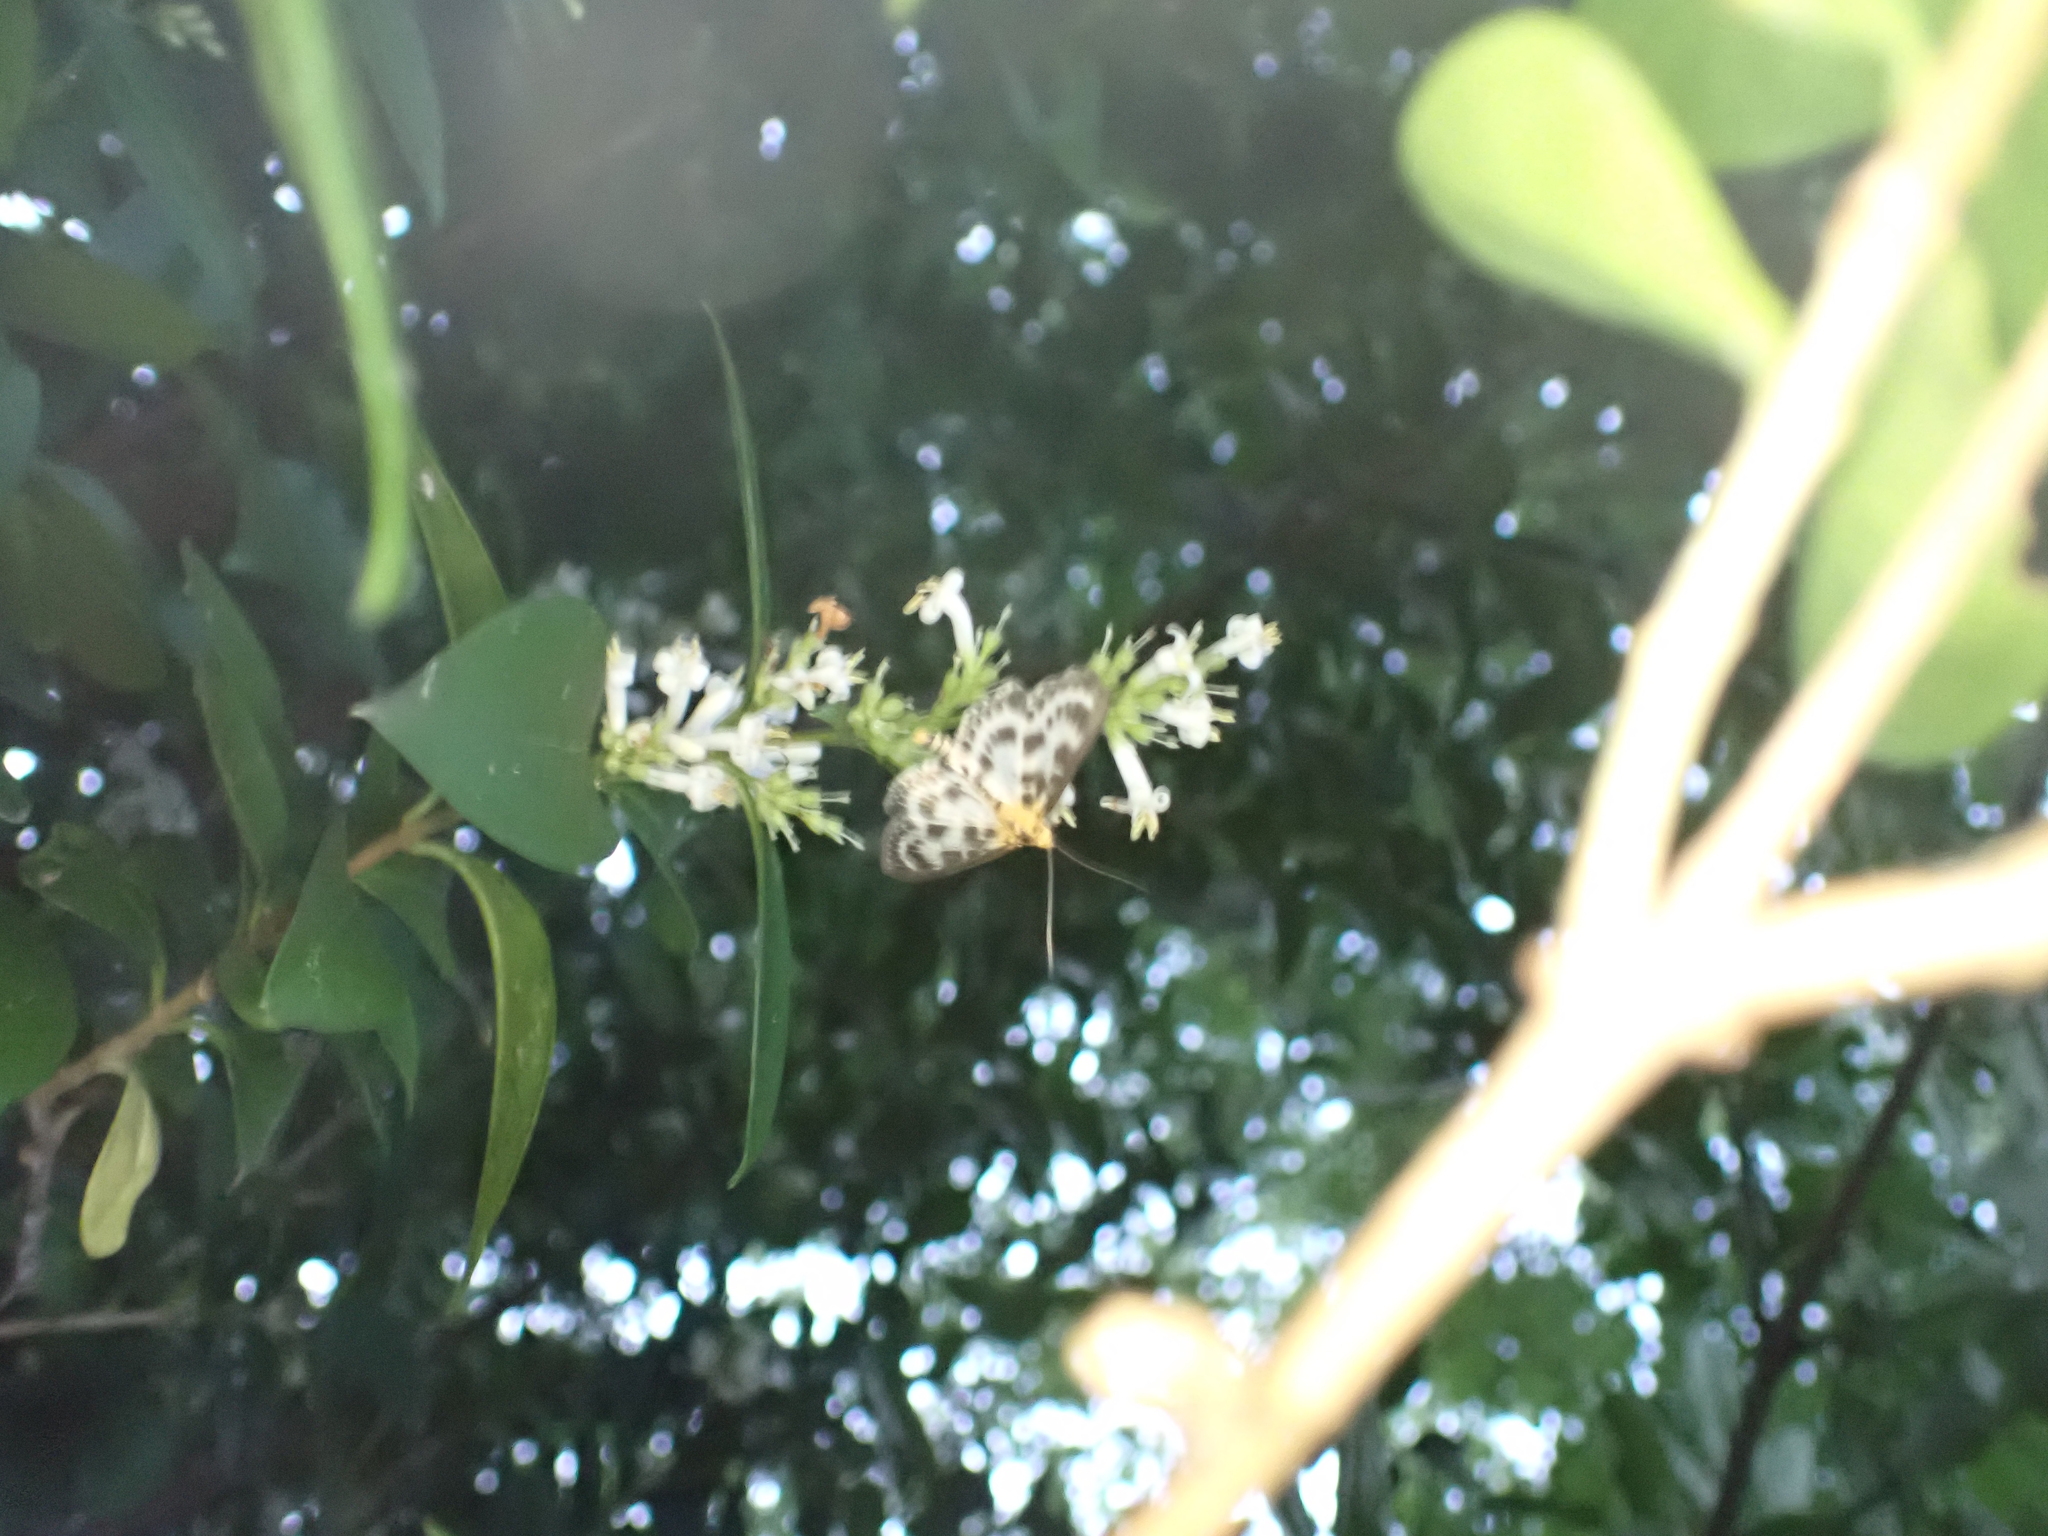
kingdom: Animalia
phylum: Arthropoda
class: Insecta
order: Lepidoptera
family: Crambidae
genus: Anania
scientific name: Anania hortulata
